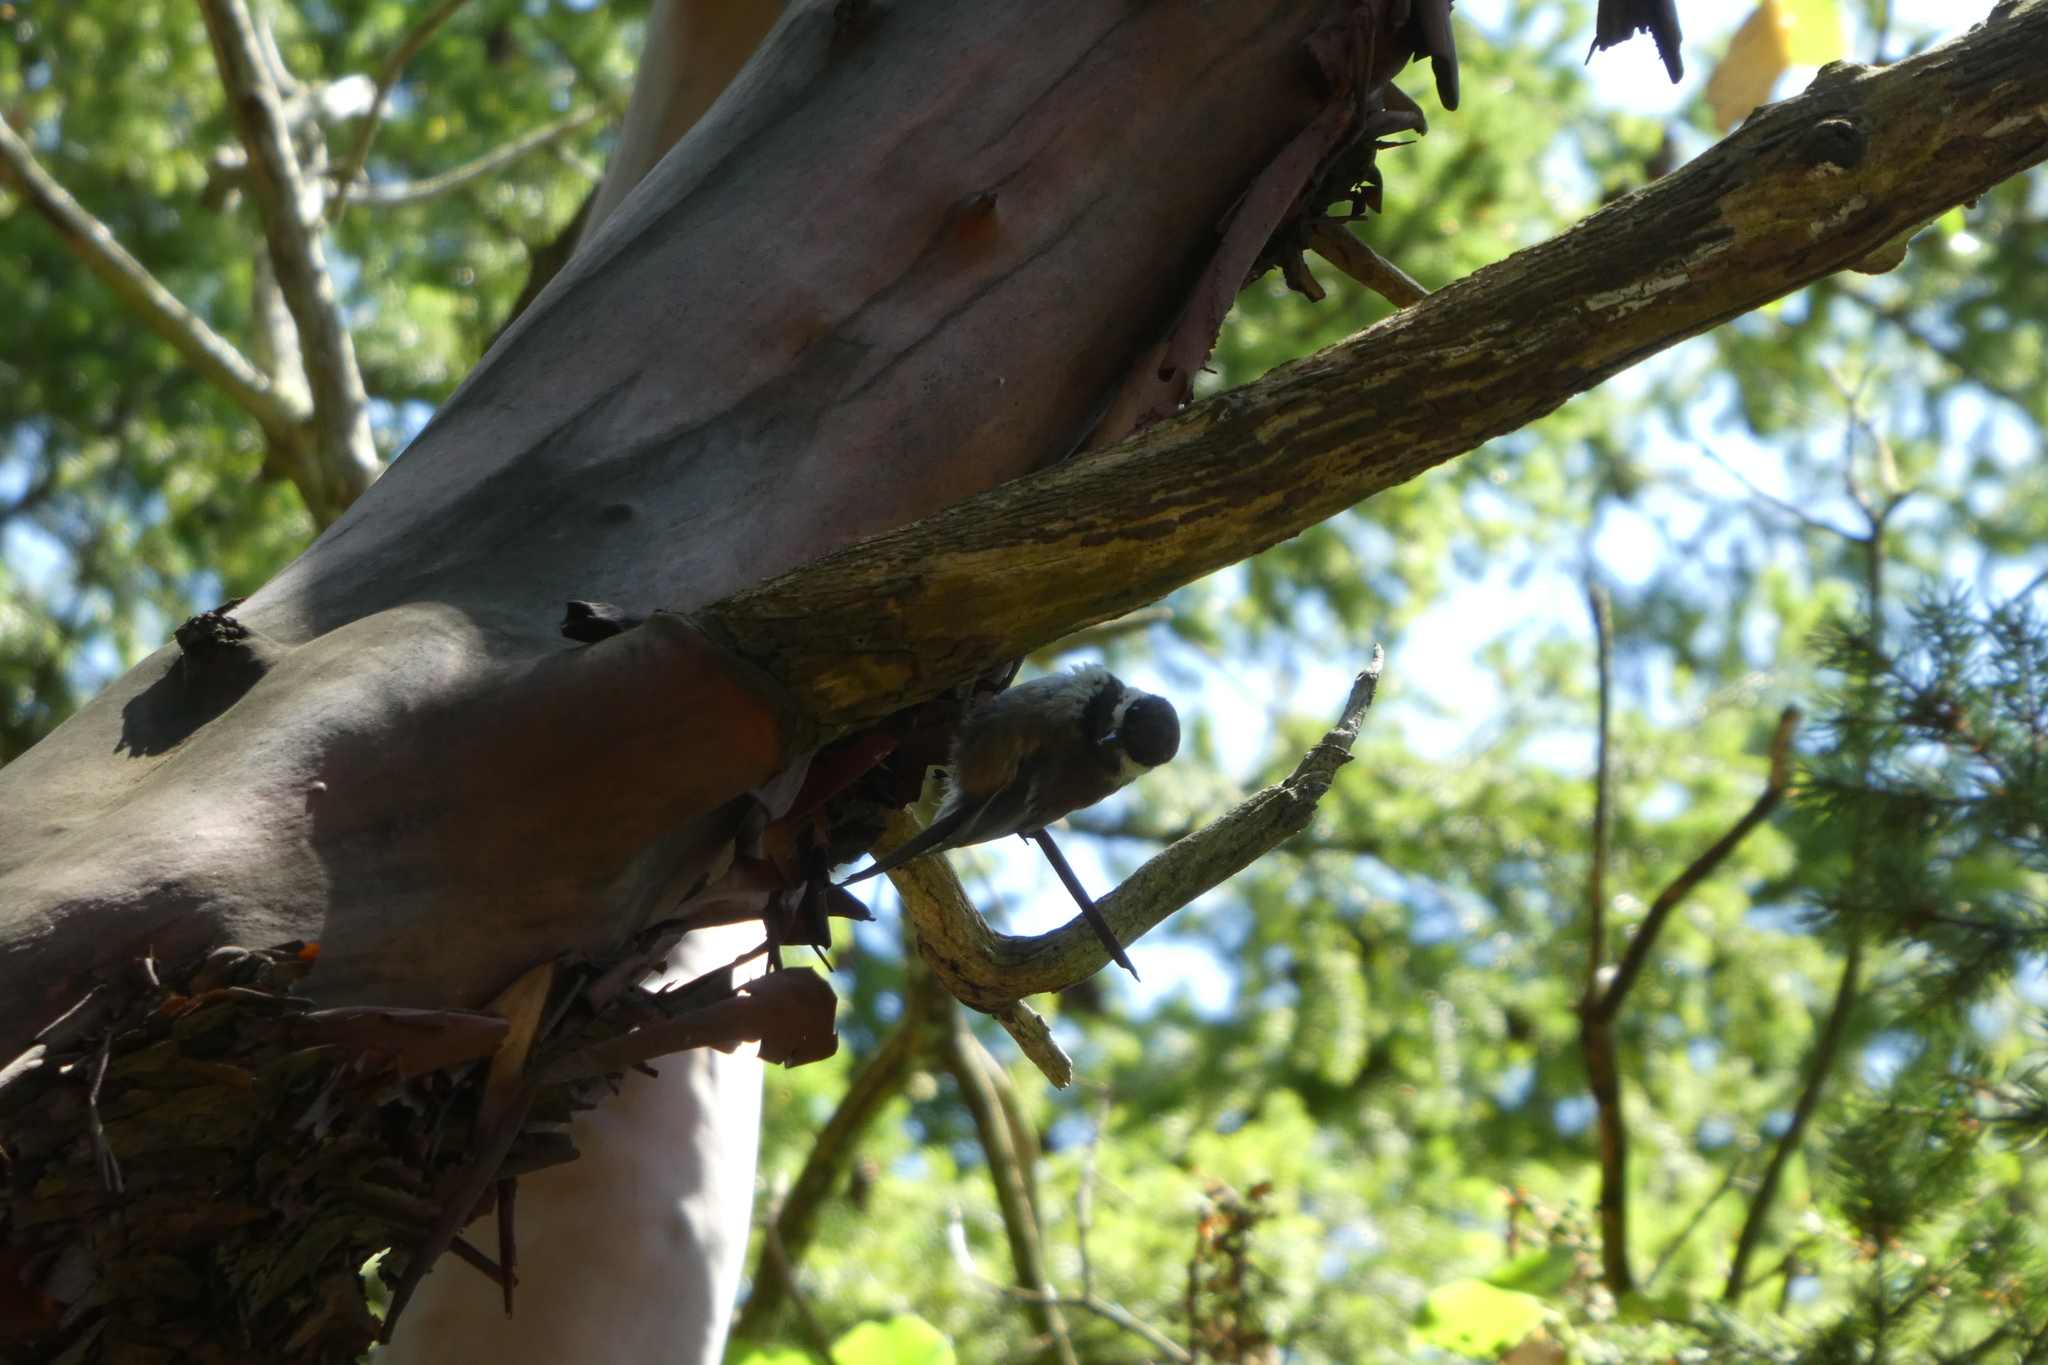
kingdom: Animalia
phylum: Chordata
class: Aves
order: Passeriformes
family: Paridae
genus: Poecile
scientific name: Poecile rufescens
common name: Chestnut-backed chickadee
